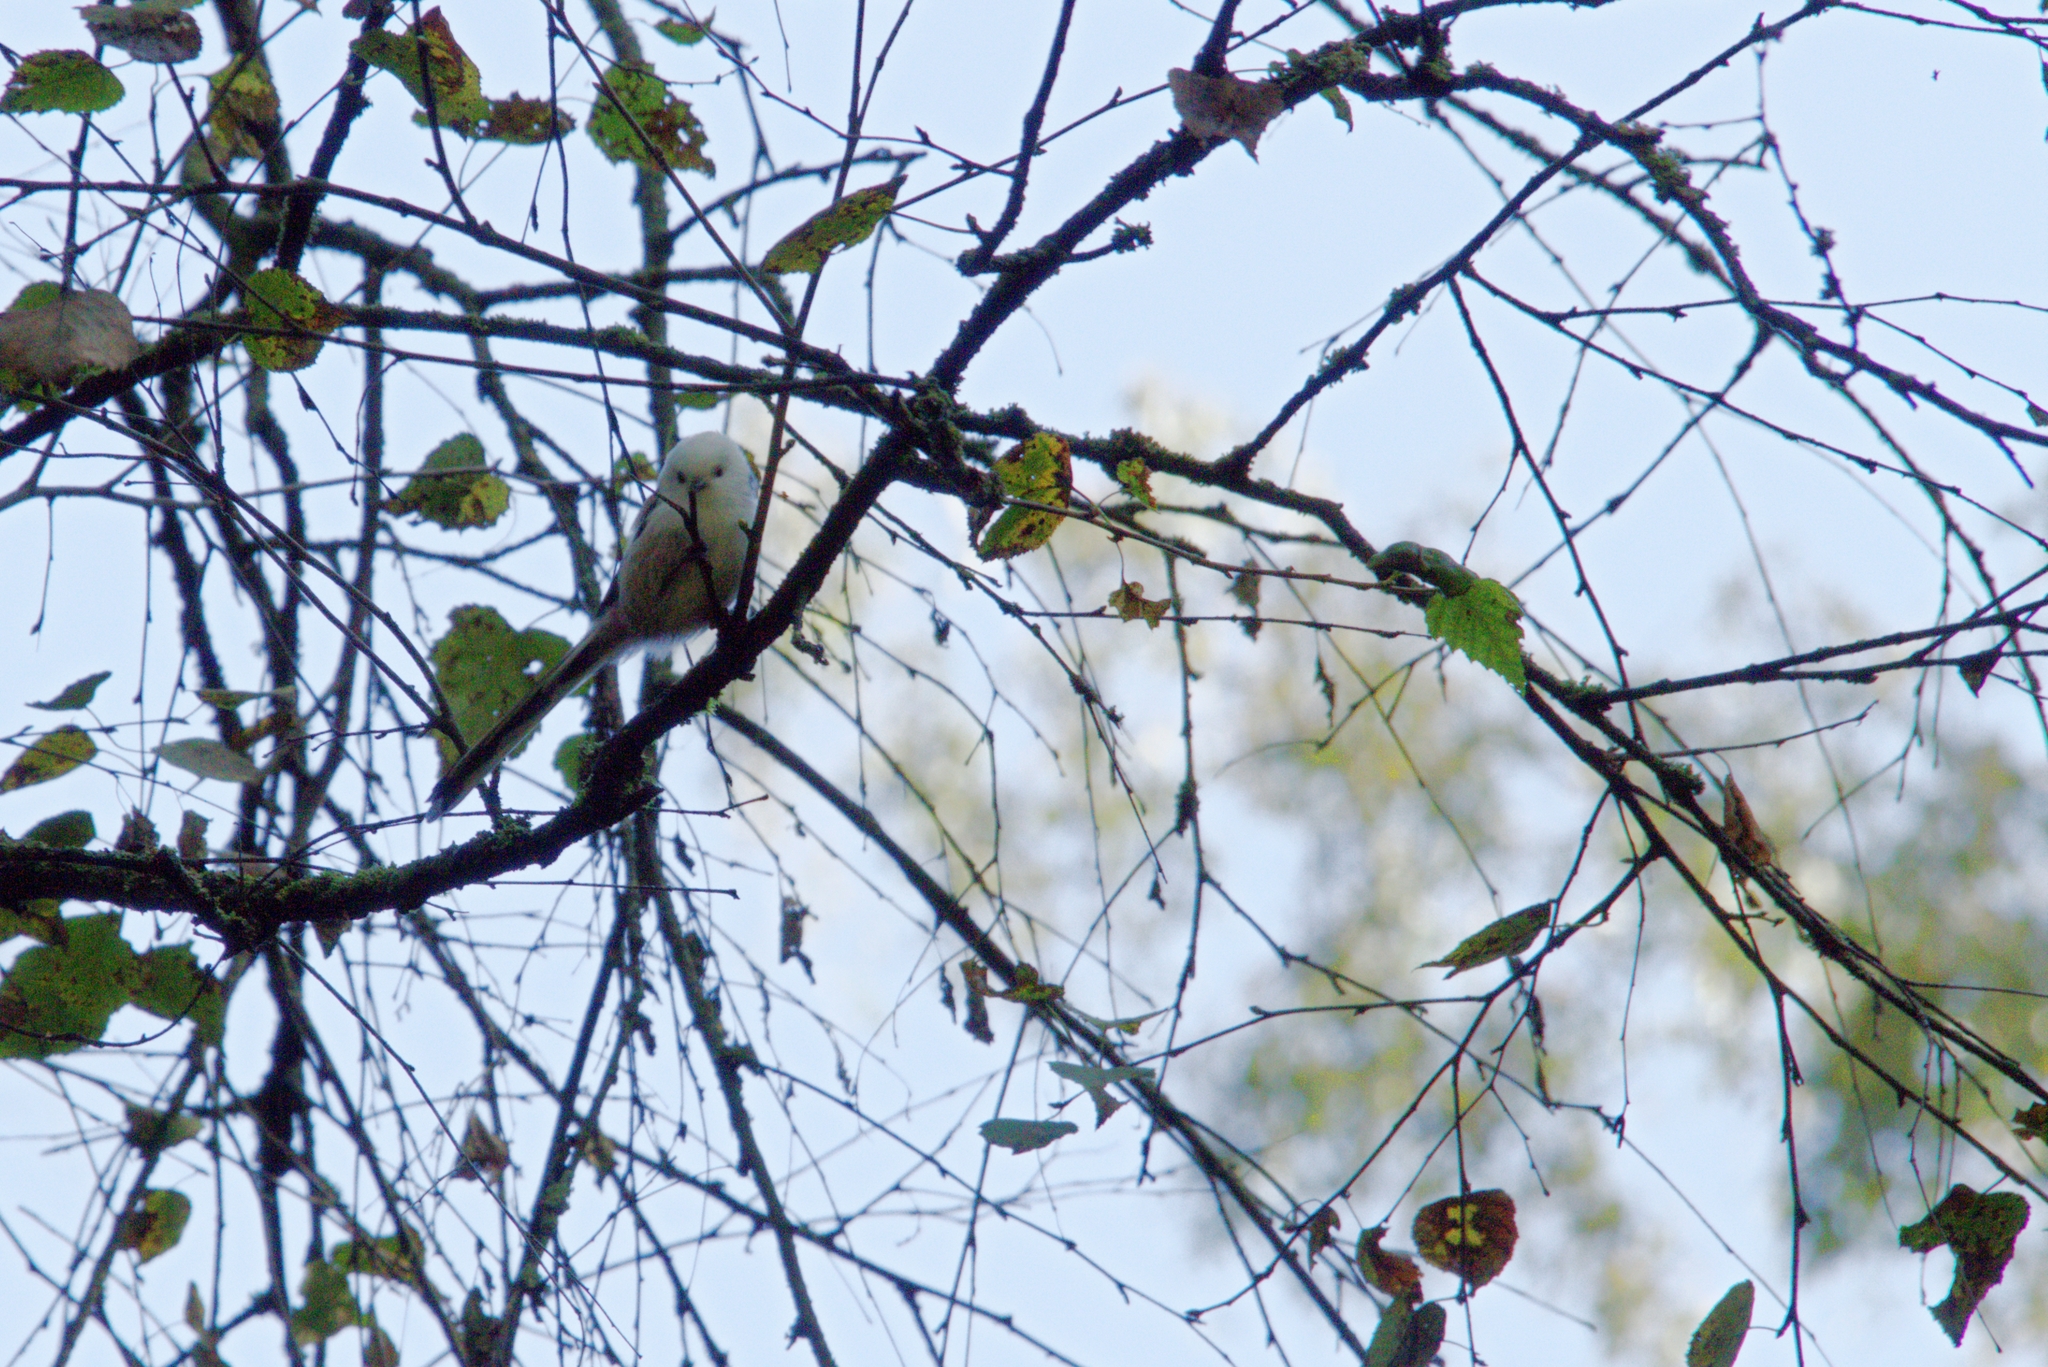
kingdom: Animalia
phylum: Chordata
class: Aves
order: Passeriformes
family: Aegithalidae
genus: Aegithalos
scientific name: Aegithalos caudatus
